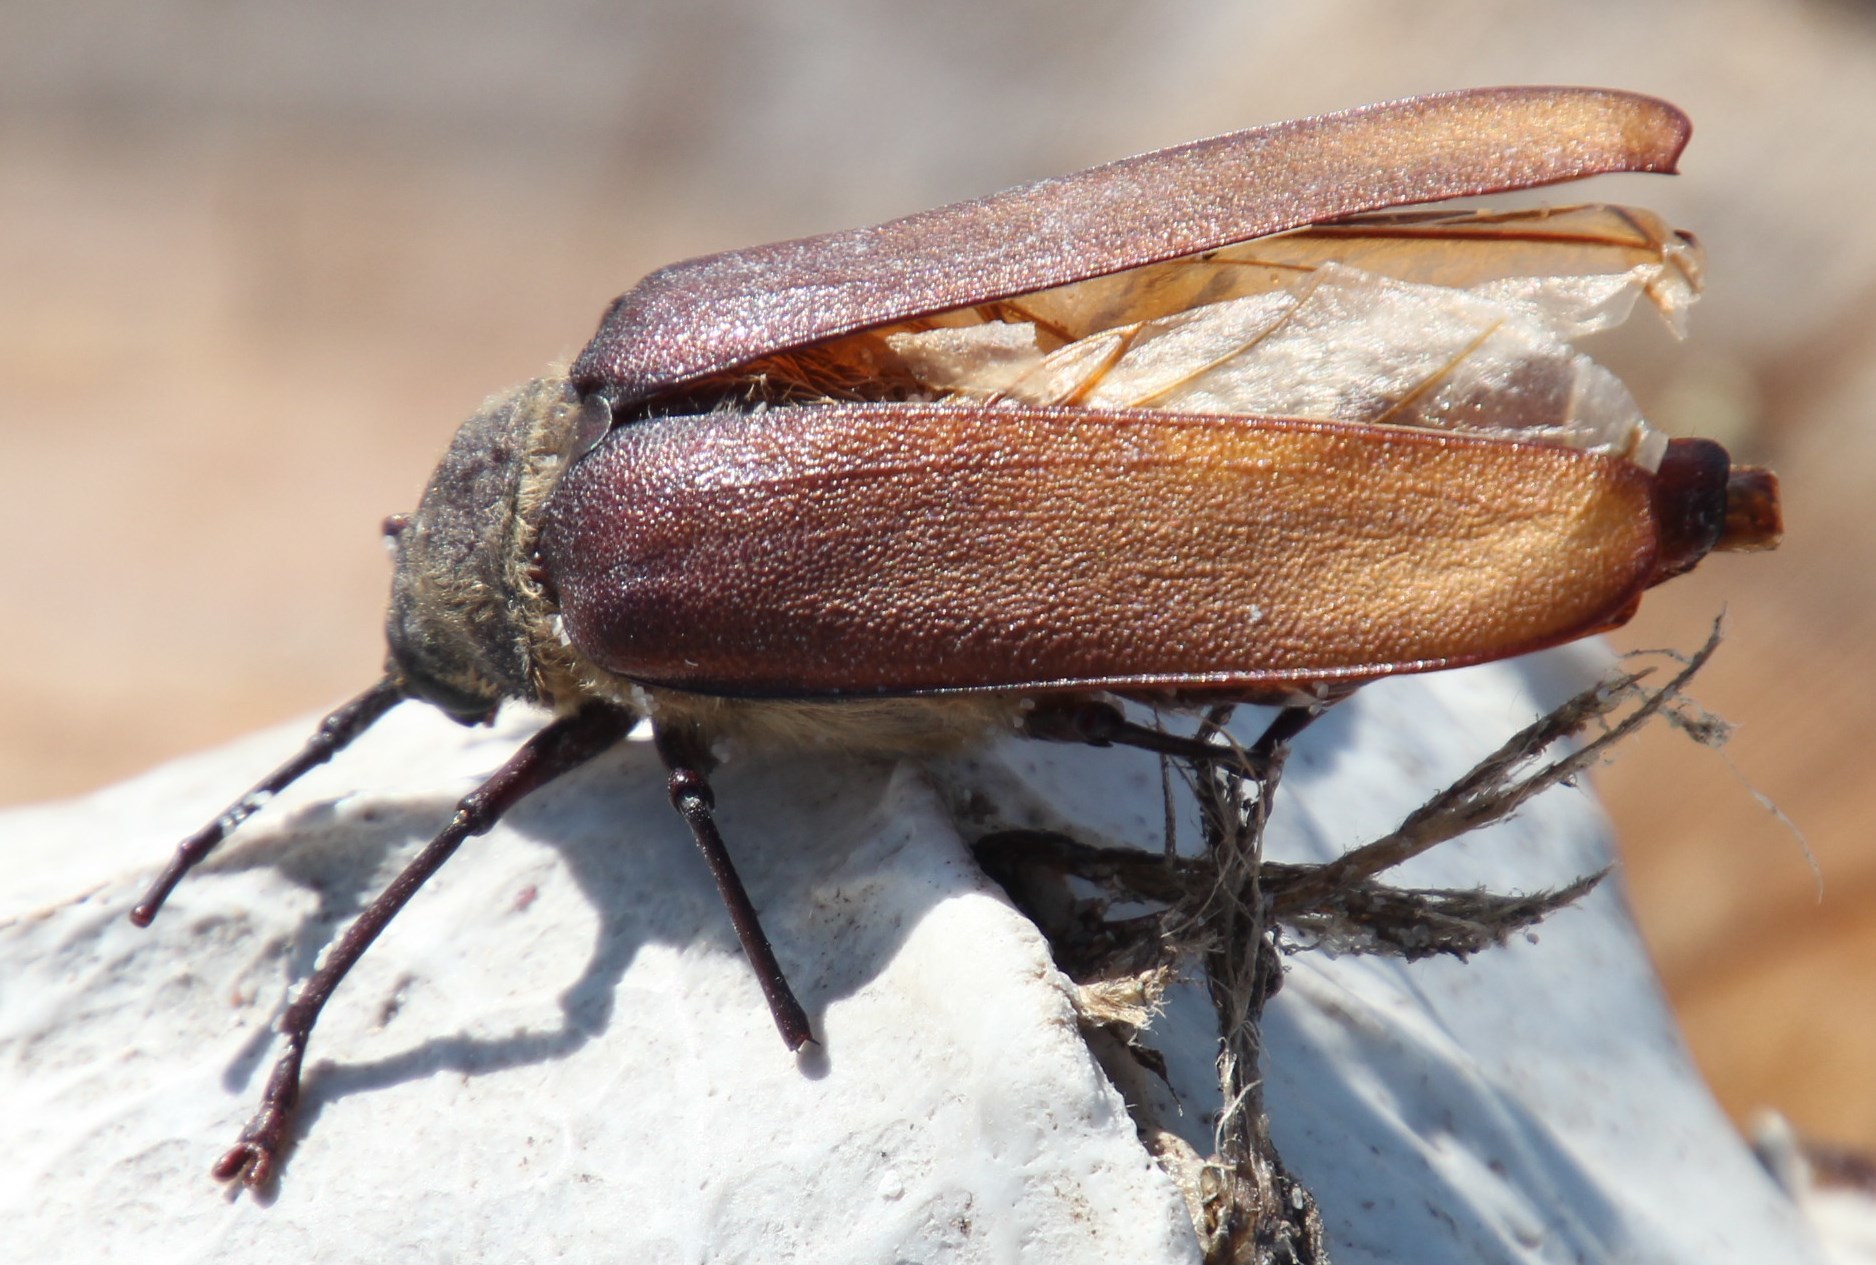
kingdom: Animalia
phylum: Arthropoda
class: Insecta
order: Coleoptera
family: Cerambycidae
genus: Erioderus
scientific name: Erioderus candezei
